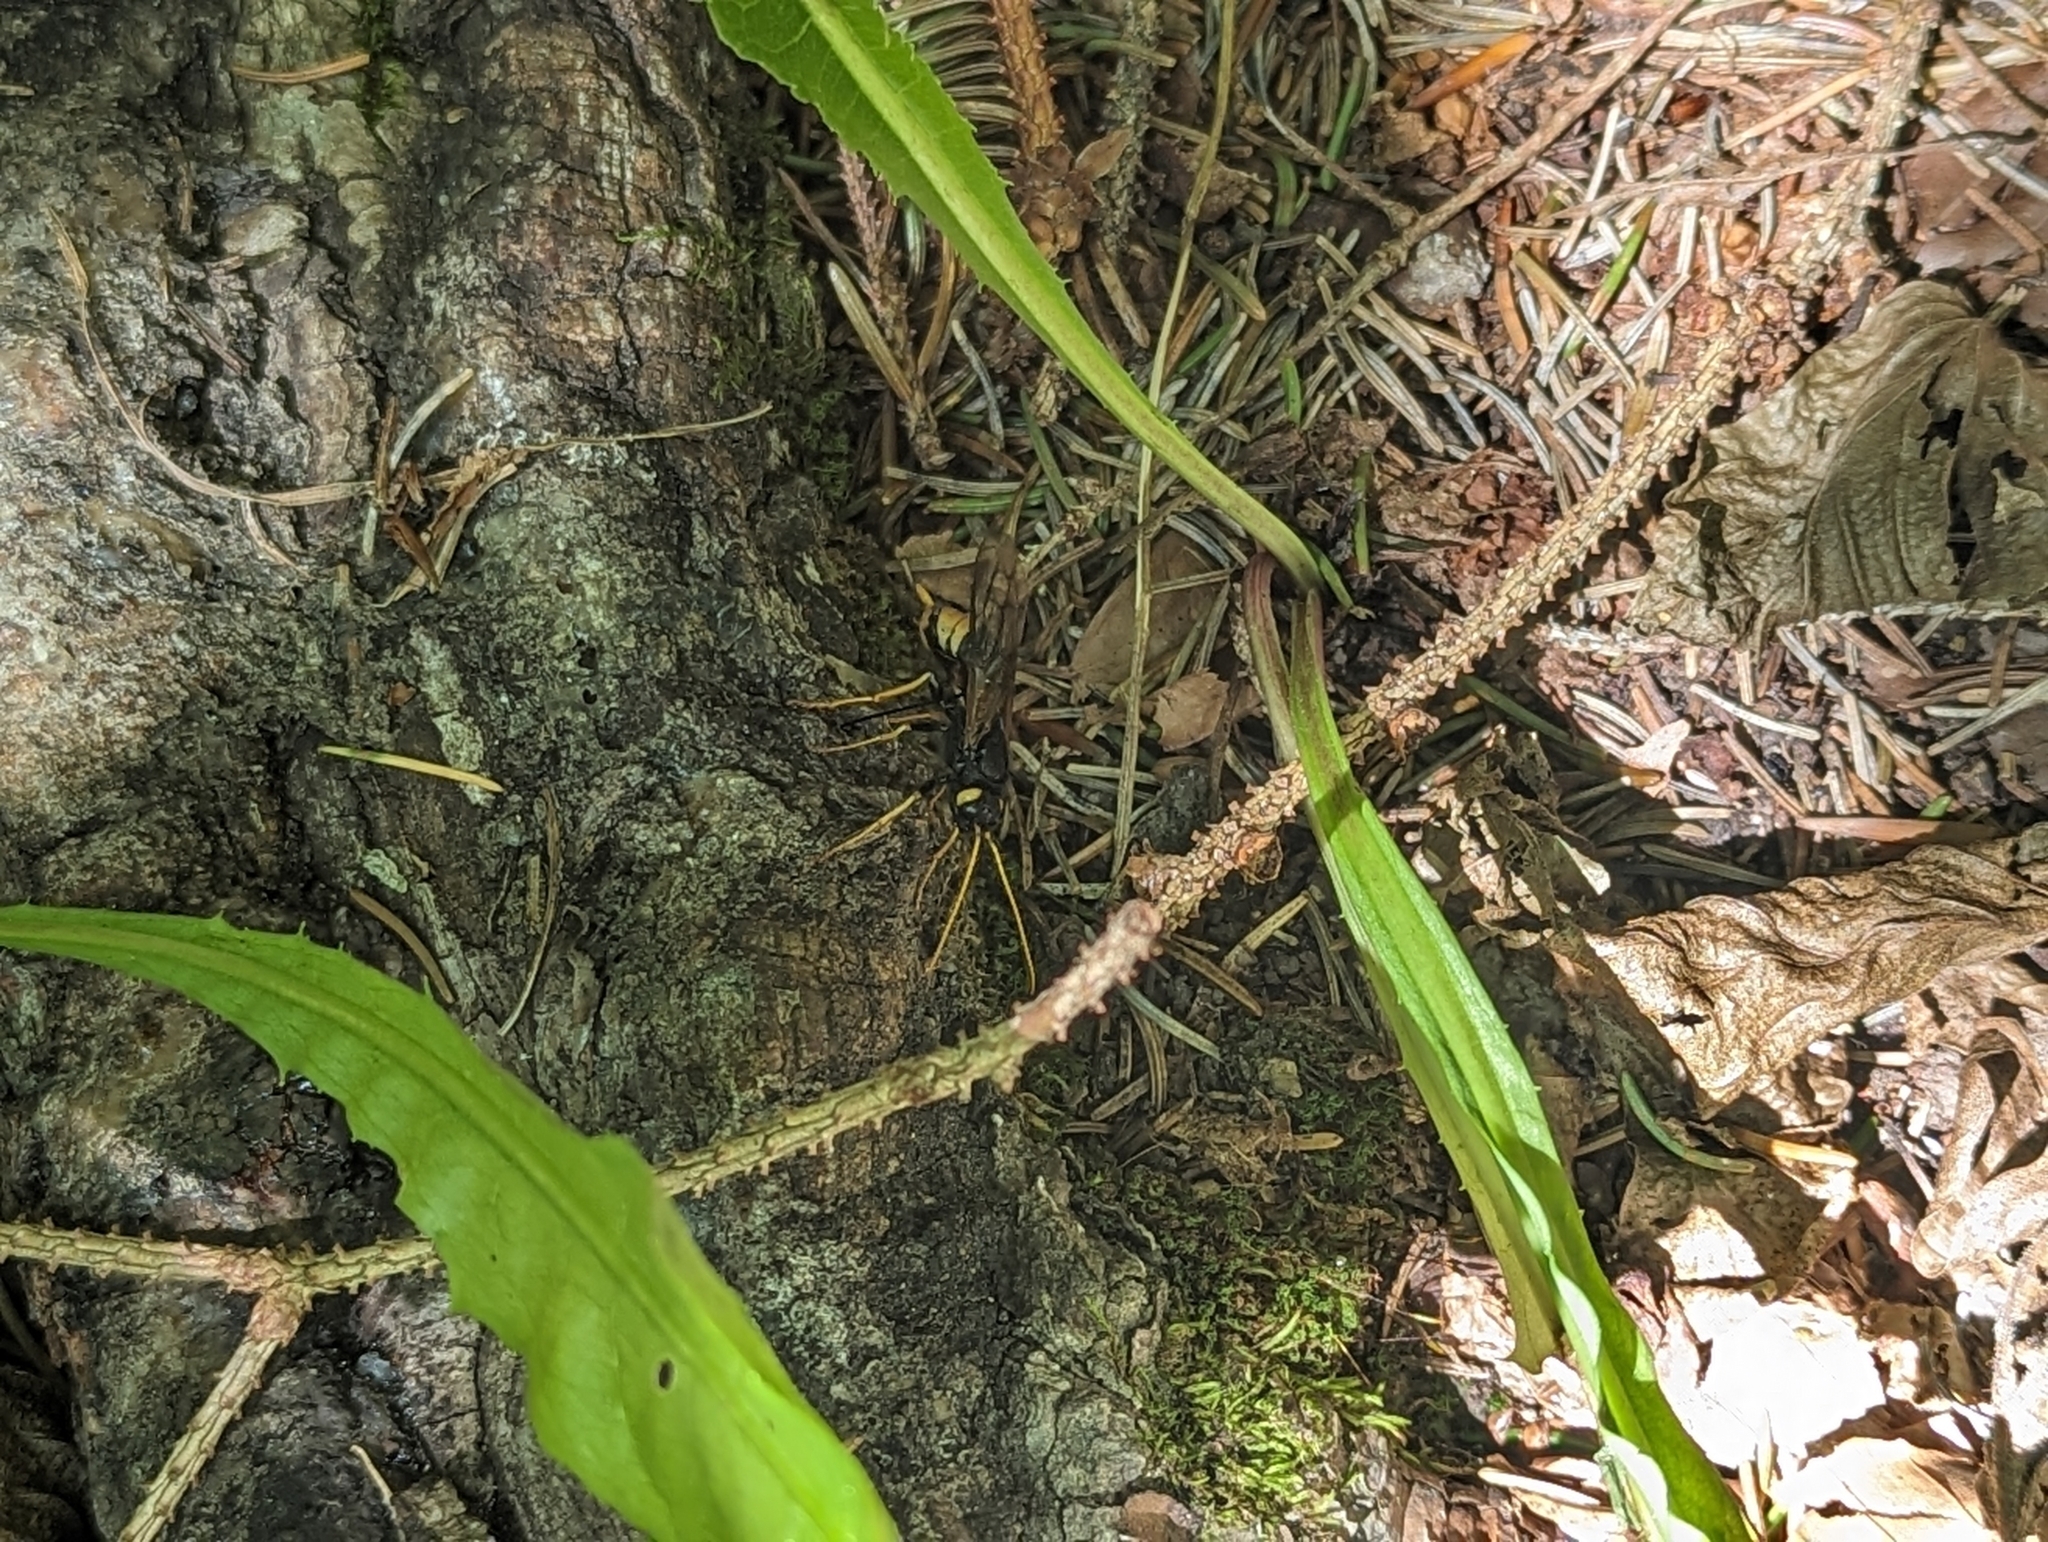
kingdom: Animalia
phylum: Arthropoda
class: Insecta
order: Hymenoptera
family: Siricidae
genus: Urocerus
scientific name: Urocerus gigas
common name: Giant woodwasp
